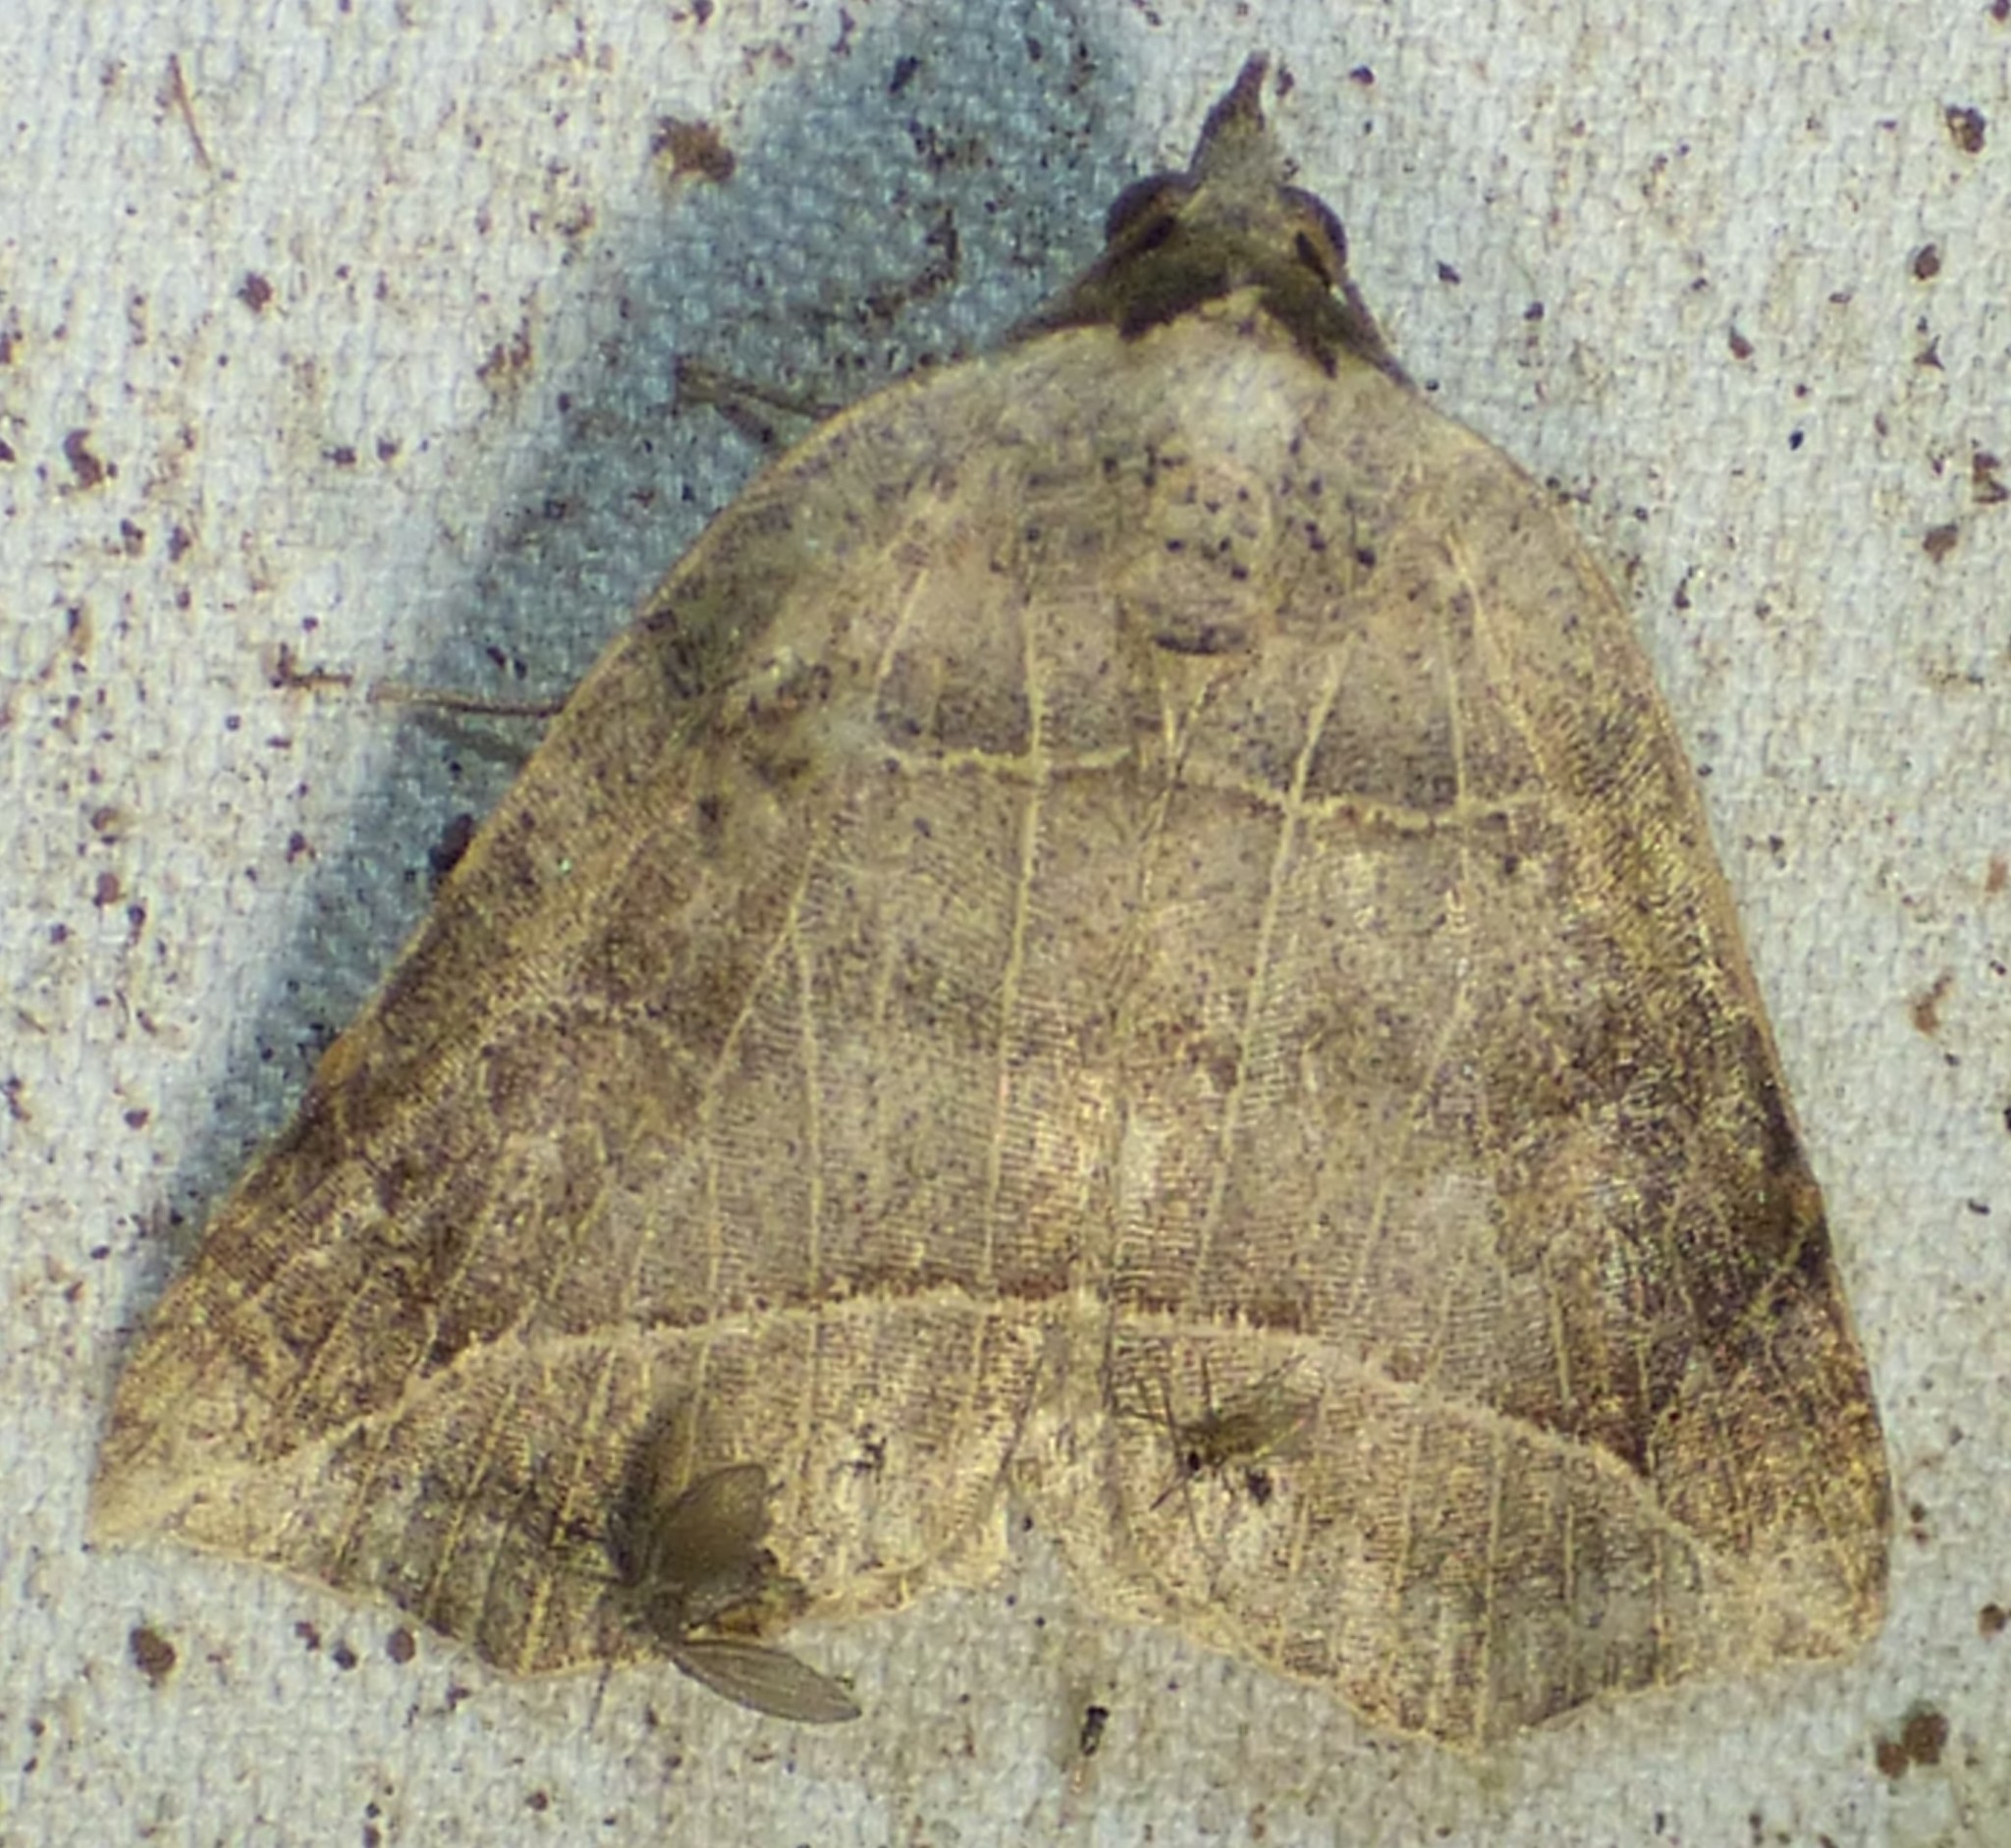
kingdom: Animalia
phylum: Arthropoda
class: Insecta
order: Lepidoptera
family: Erebidae
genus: Isogona
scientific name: Isogona tenuis
